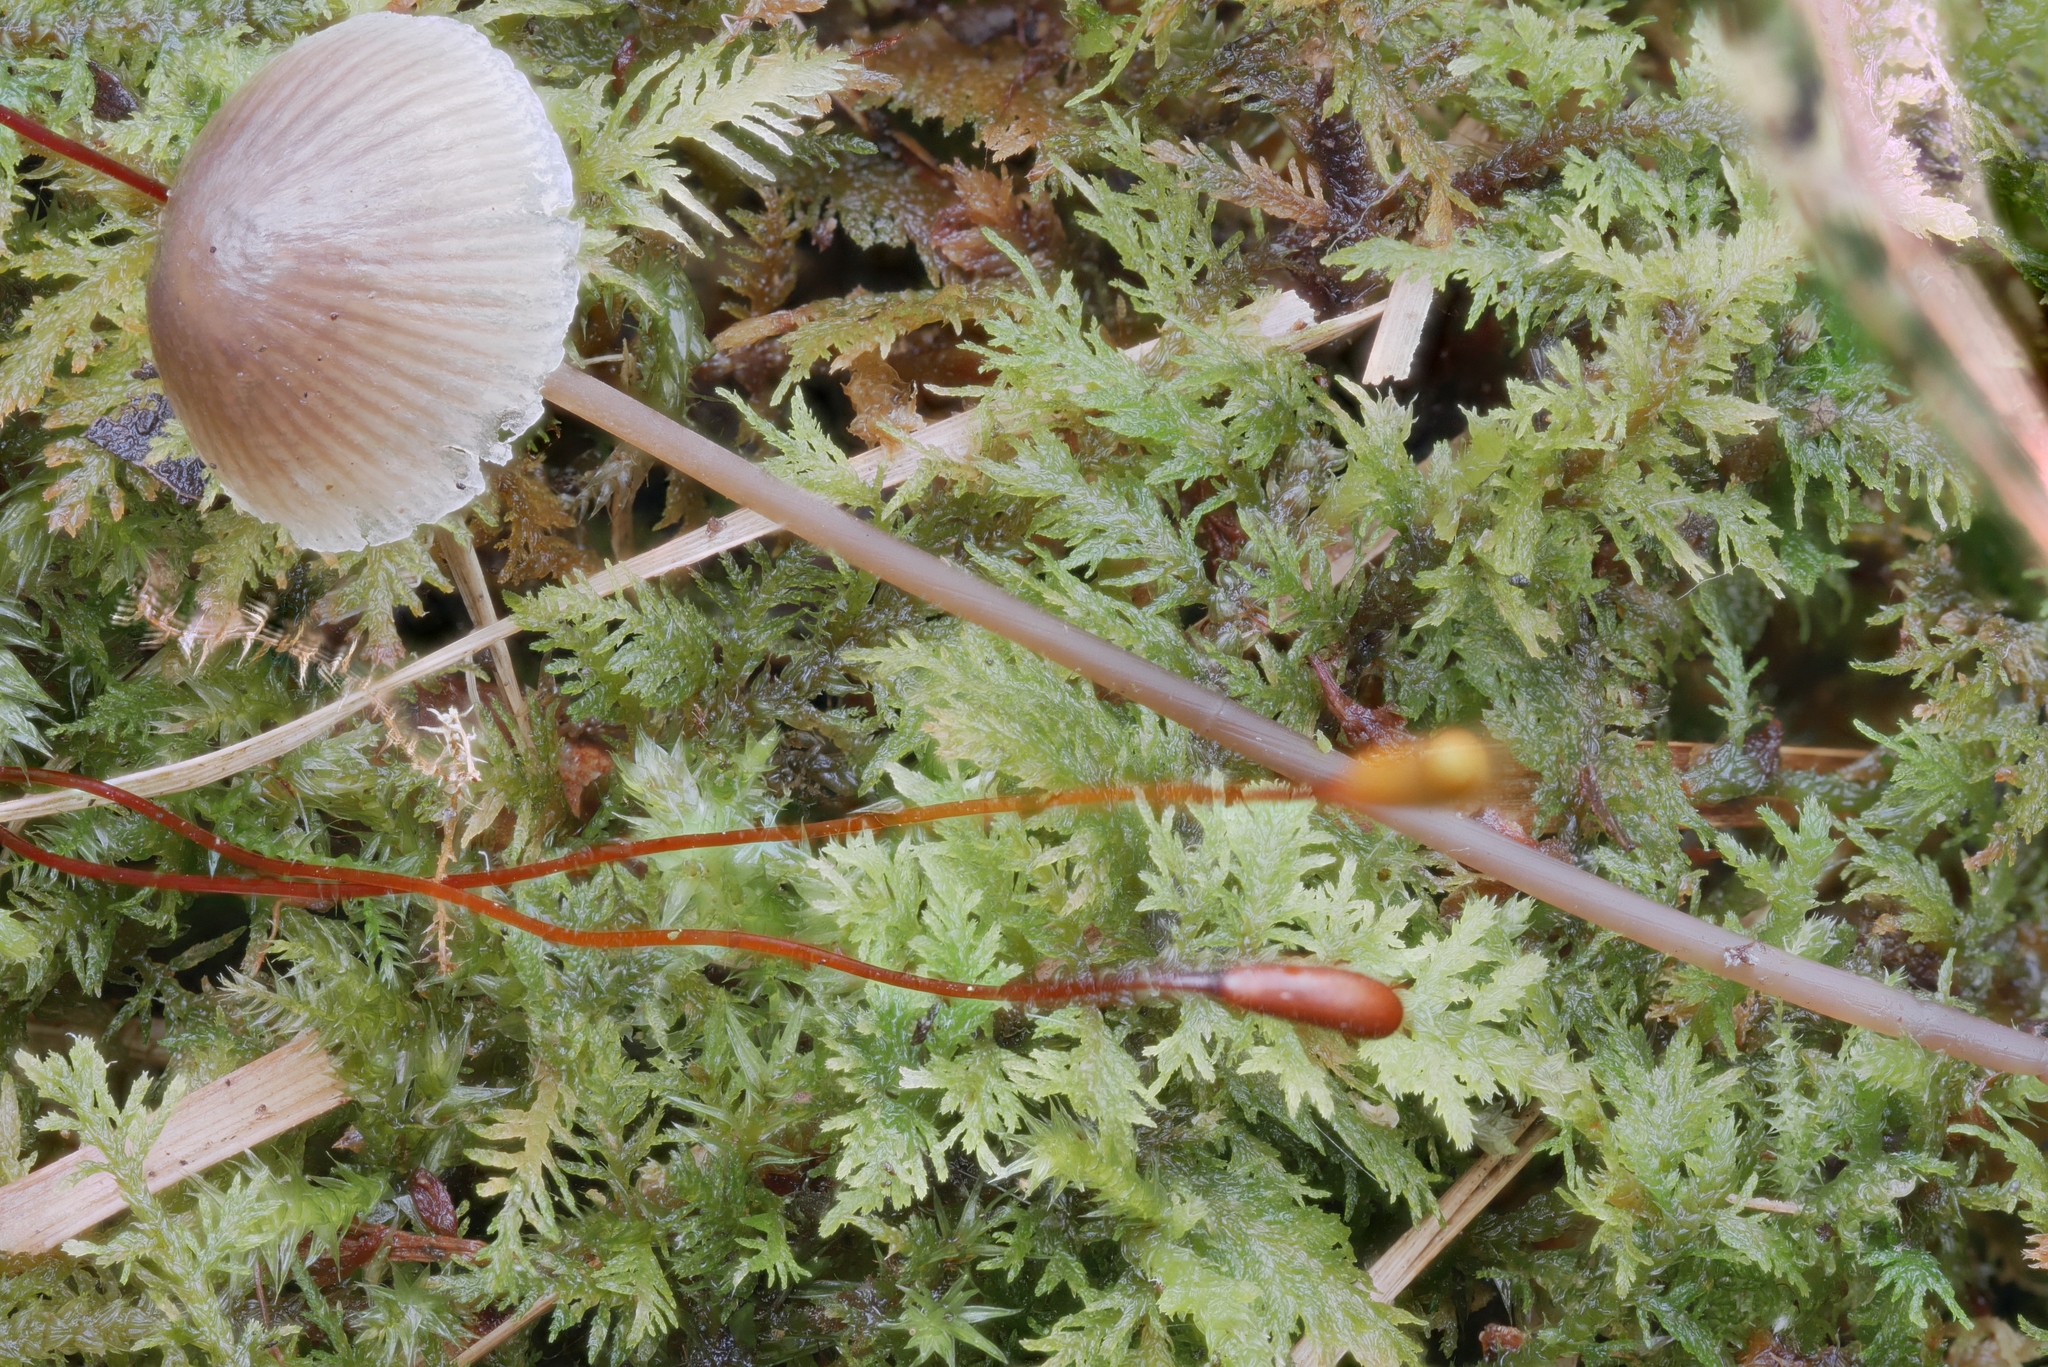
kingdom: Fungi
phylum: Basidiomycota
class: Agaricomycetes
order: Agaricales
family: Mycenaceae
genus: Mycena
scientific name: Mycena filopes
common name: Iodine bonnet
